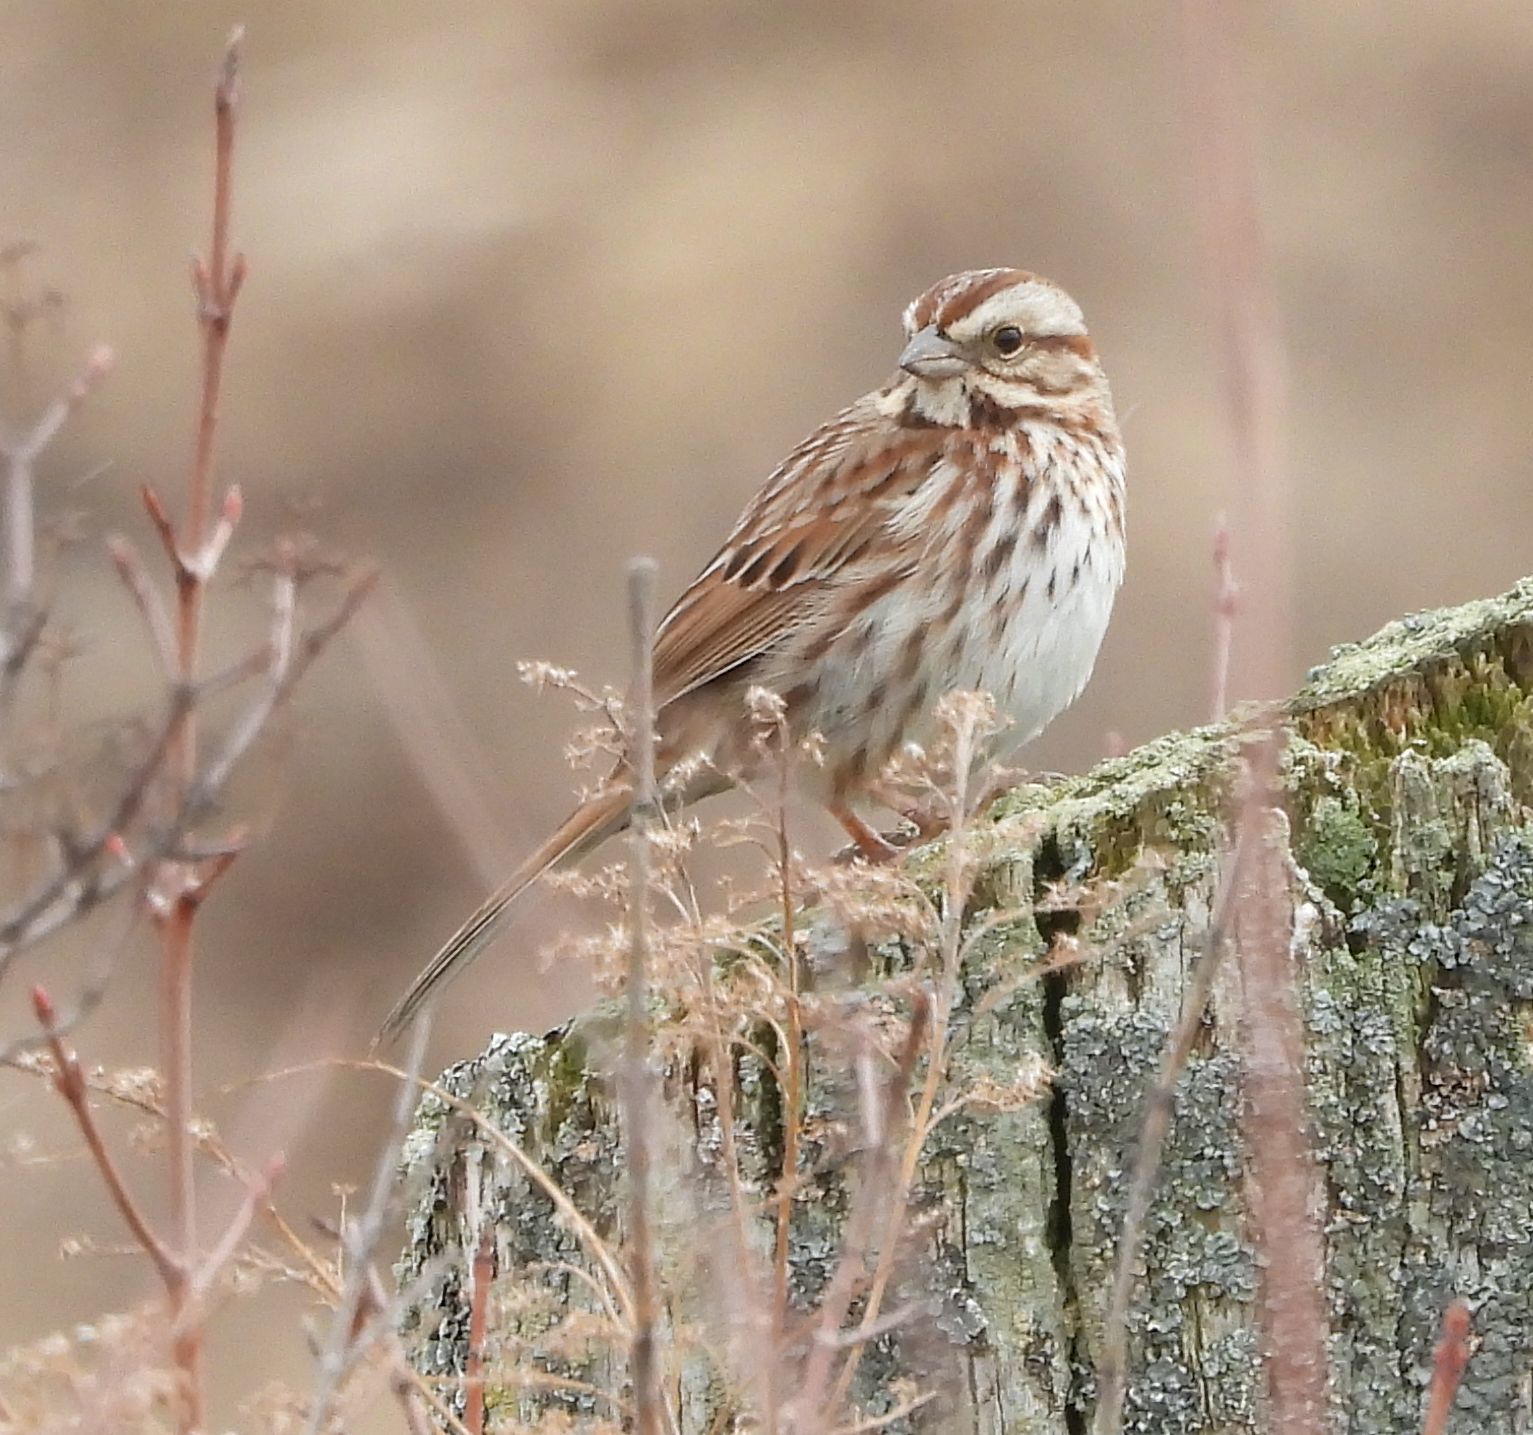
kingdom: Animalia
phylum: Chordata
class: Aves
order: Passeriformes
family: Passerellidae
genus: Melospiza
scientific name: Melospiza melodia
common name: Song sparrow
